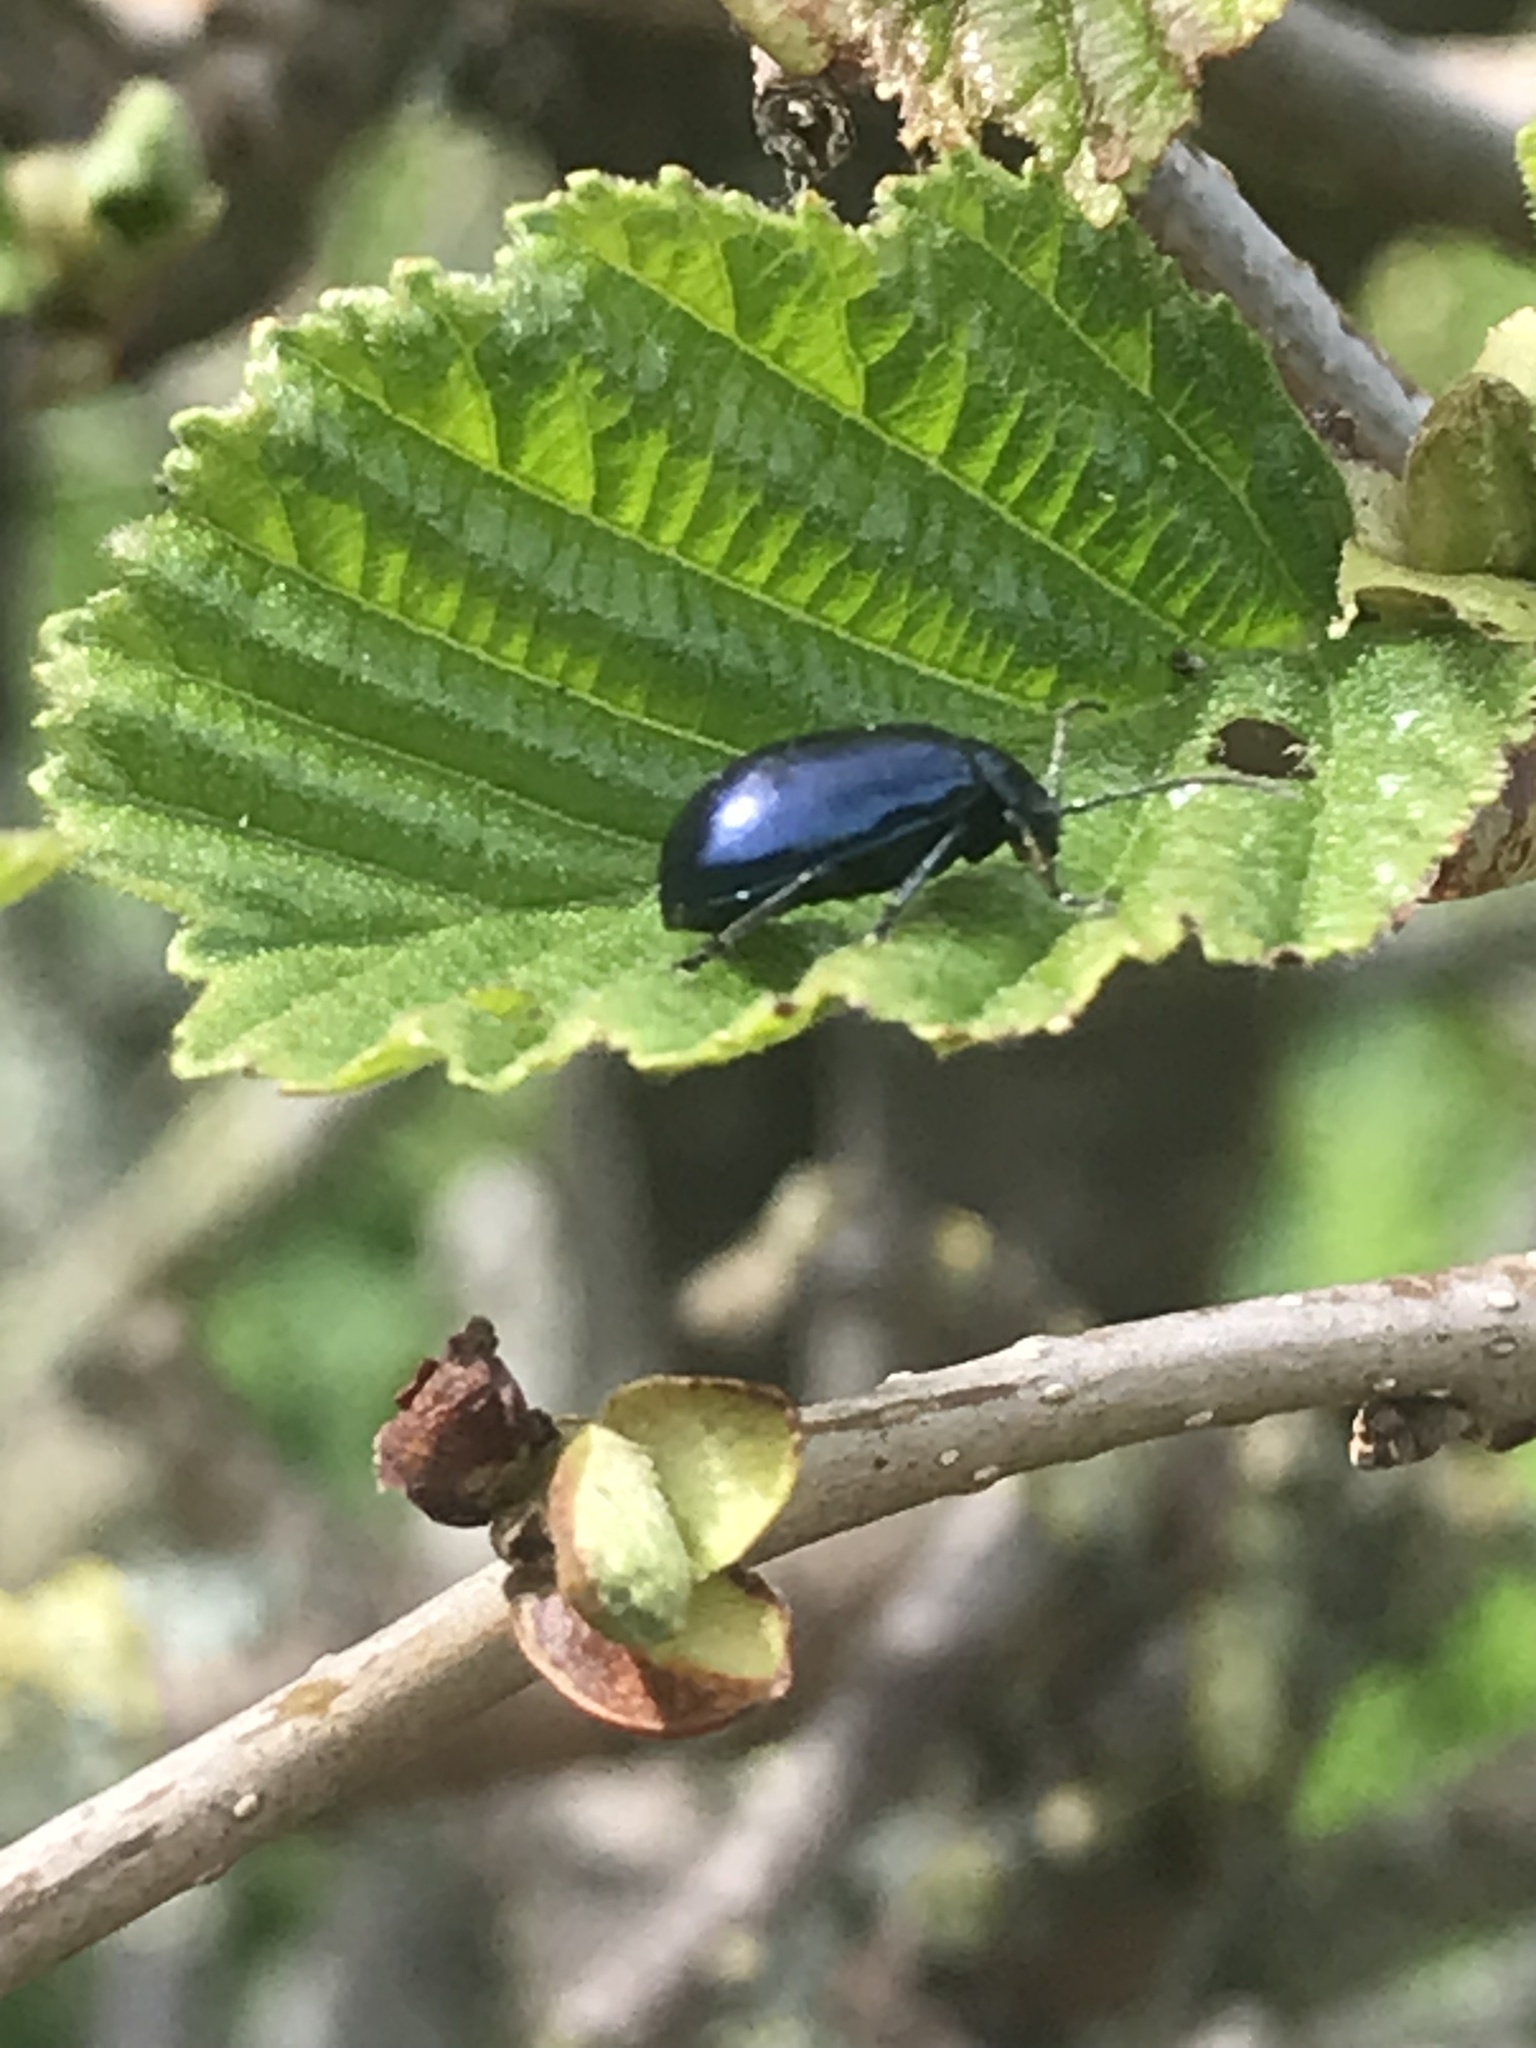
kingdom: Animalia
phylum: Arthropoda
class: Insecta
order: Coleoptera
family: Chrysomelidae
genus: Agelastica
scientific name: Agelastica alni
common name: Alder leaf beetle
